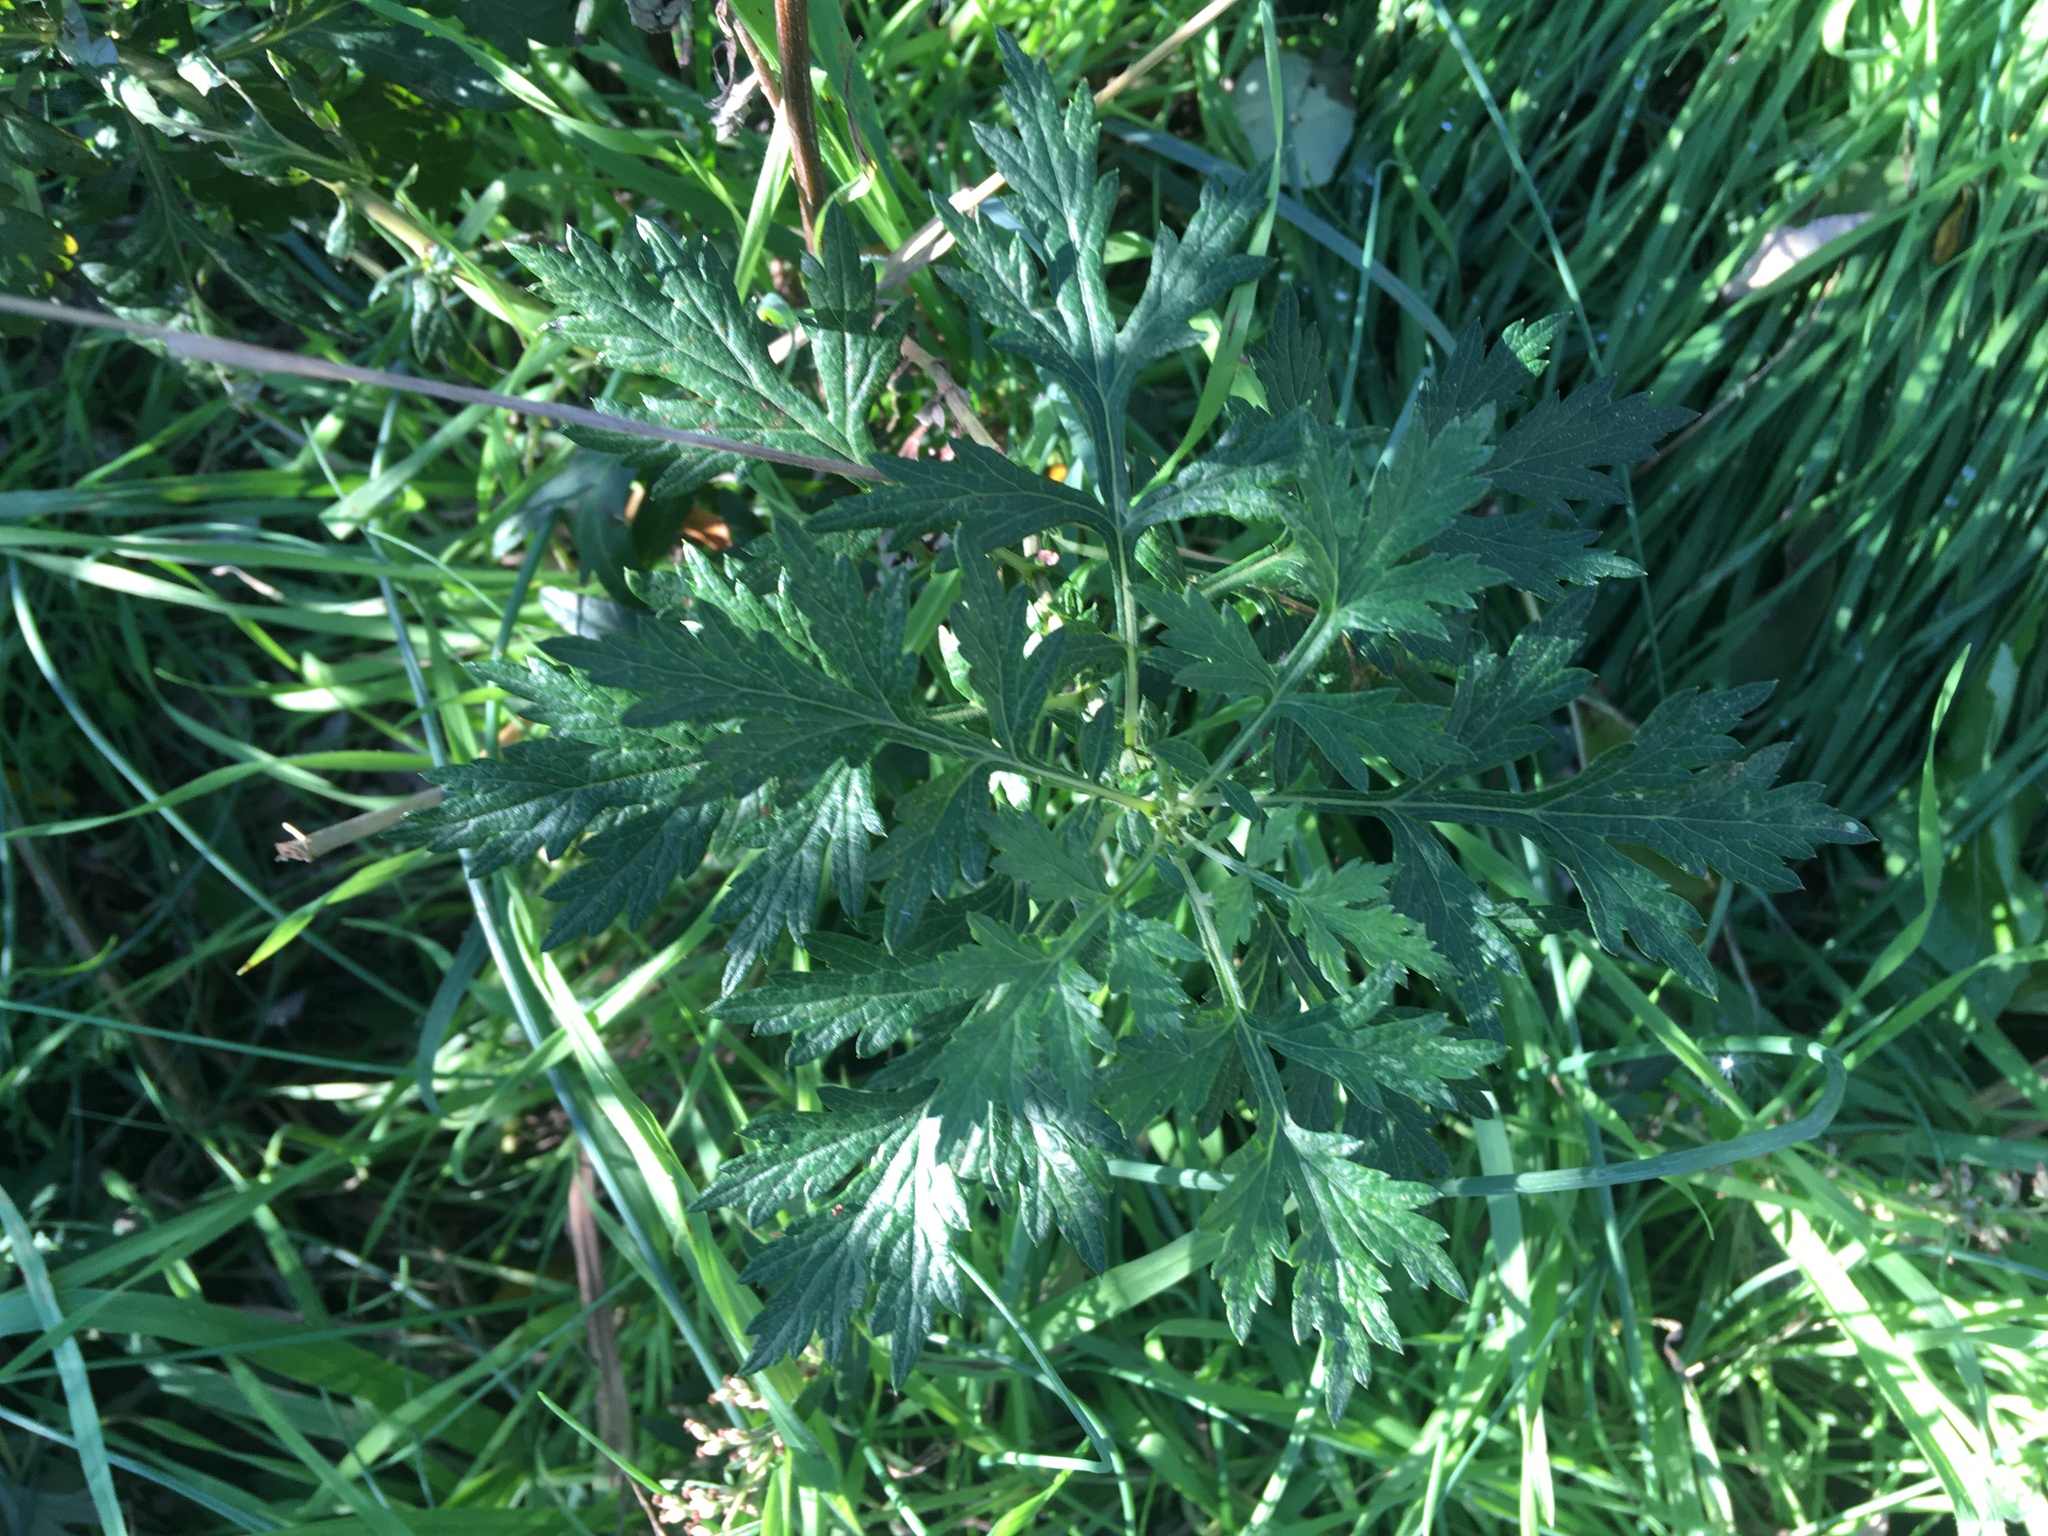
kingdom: Plantae
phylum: Tracheophyta
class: Magnoliopsida
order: Asterales
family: Asteraceae
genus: Artemisia
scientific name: Artemisia vulgaris
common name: Mugwort
